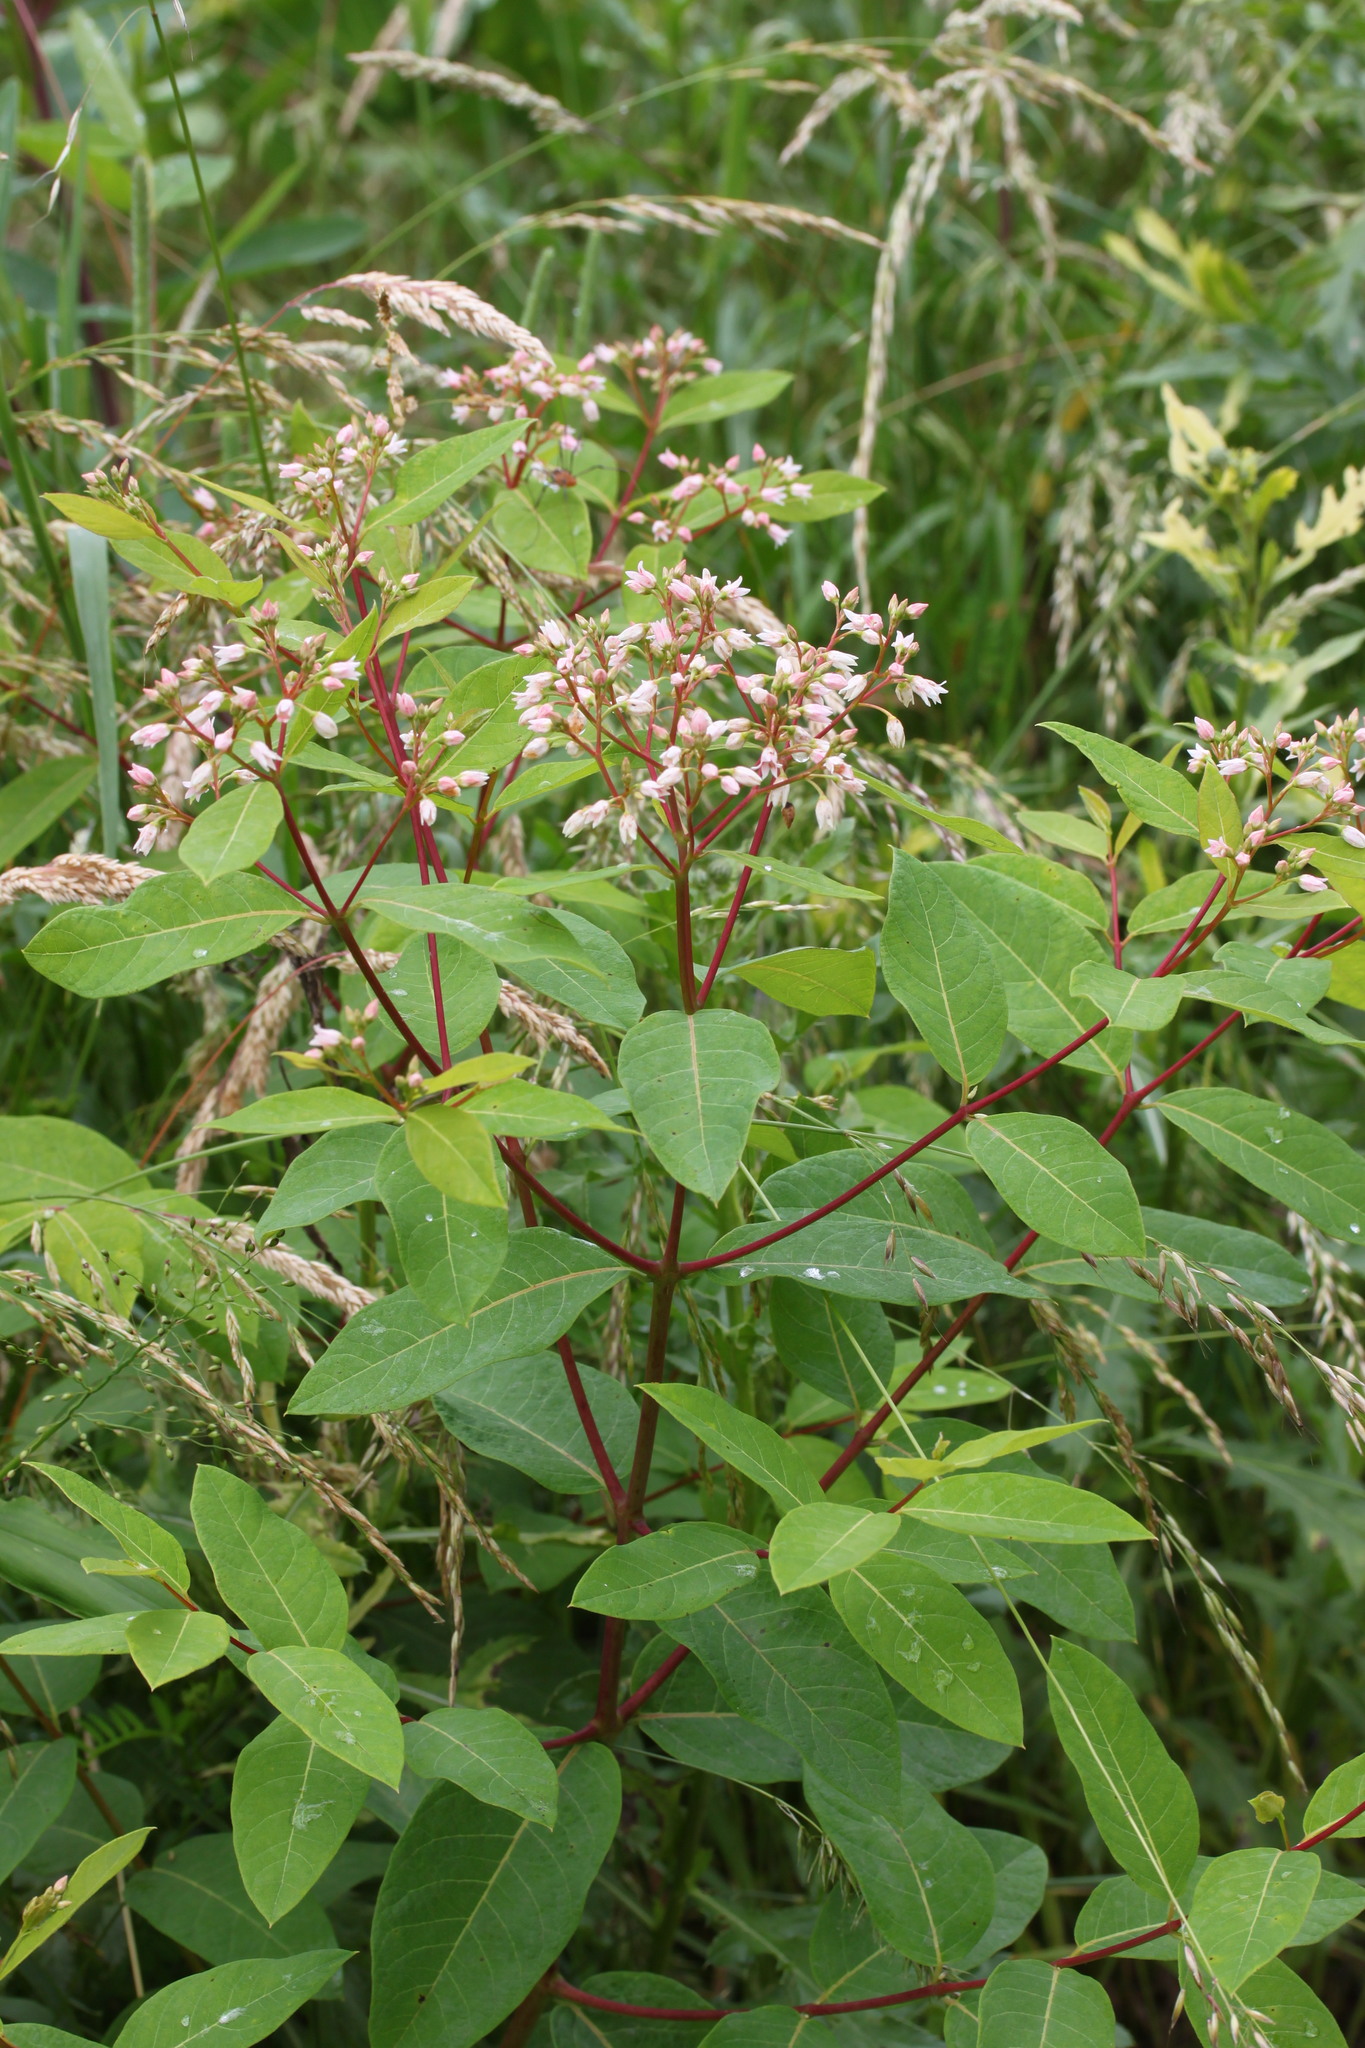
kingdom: Plantae
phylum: Tracheophyta
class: Magnoliopsida
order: Gentianales
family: Apocynaceae
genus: Apocynum
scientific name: Apocynum cannabinum
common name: Hemp dogbane
